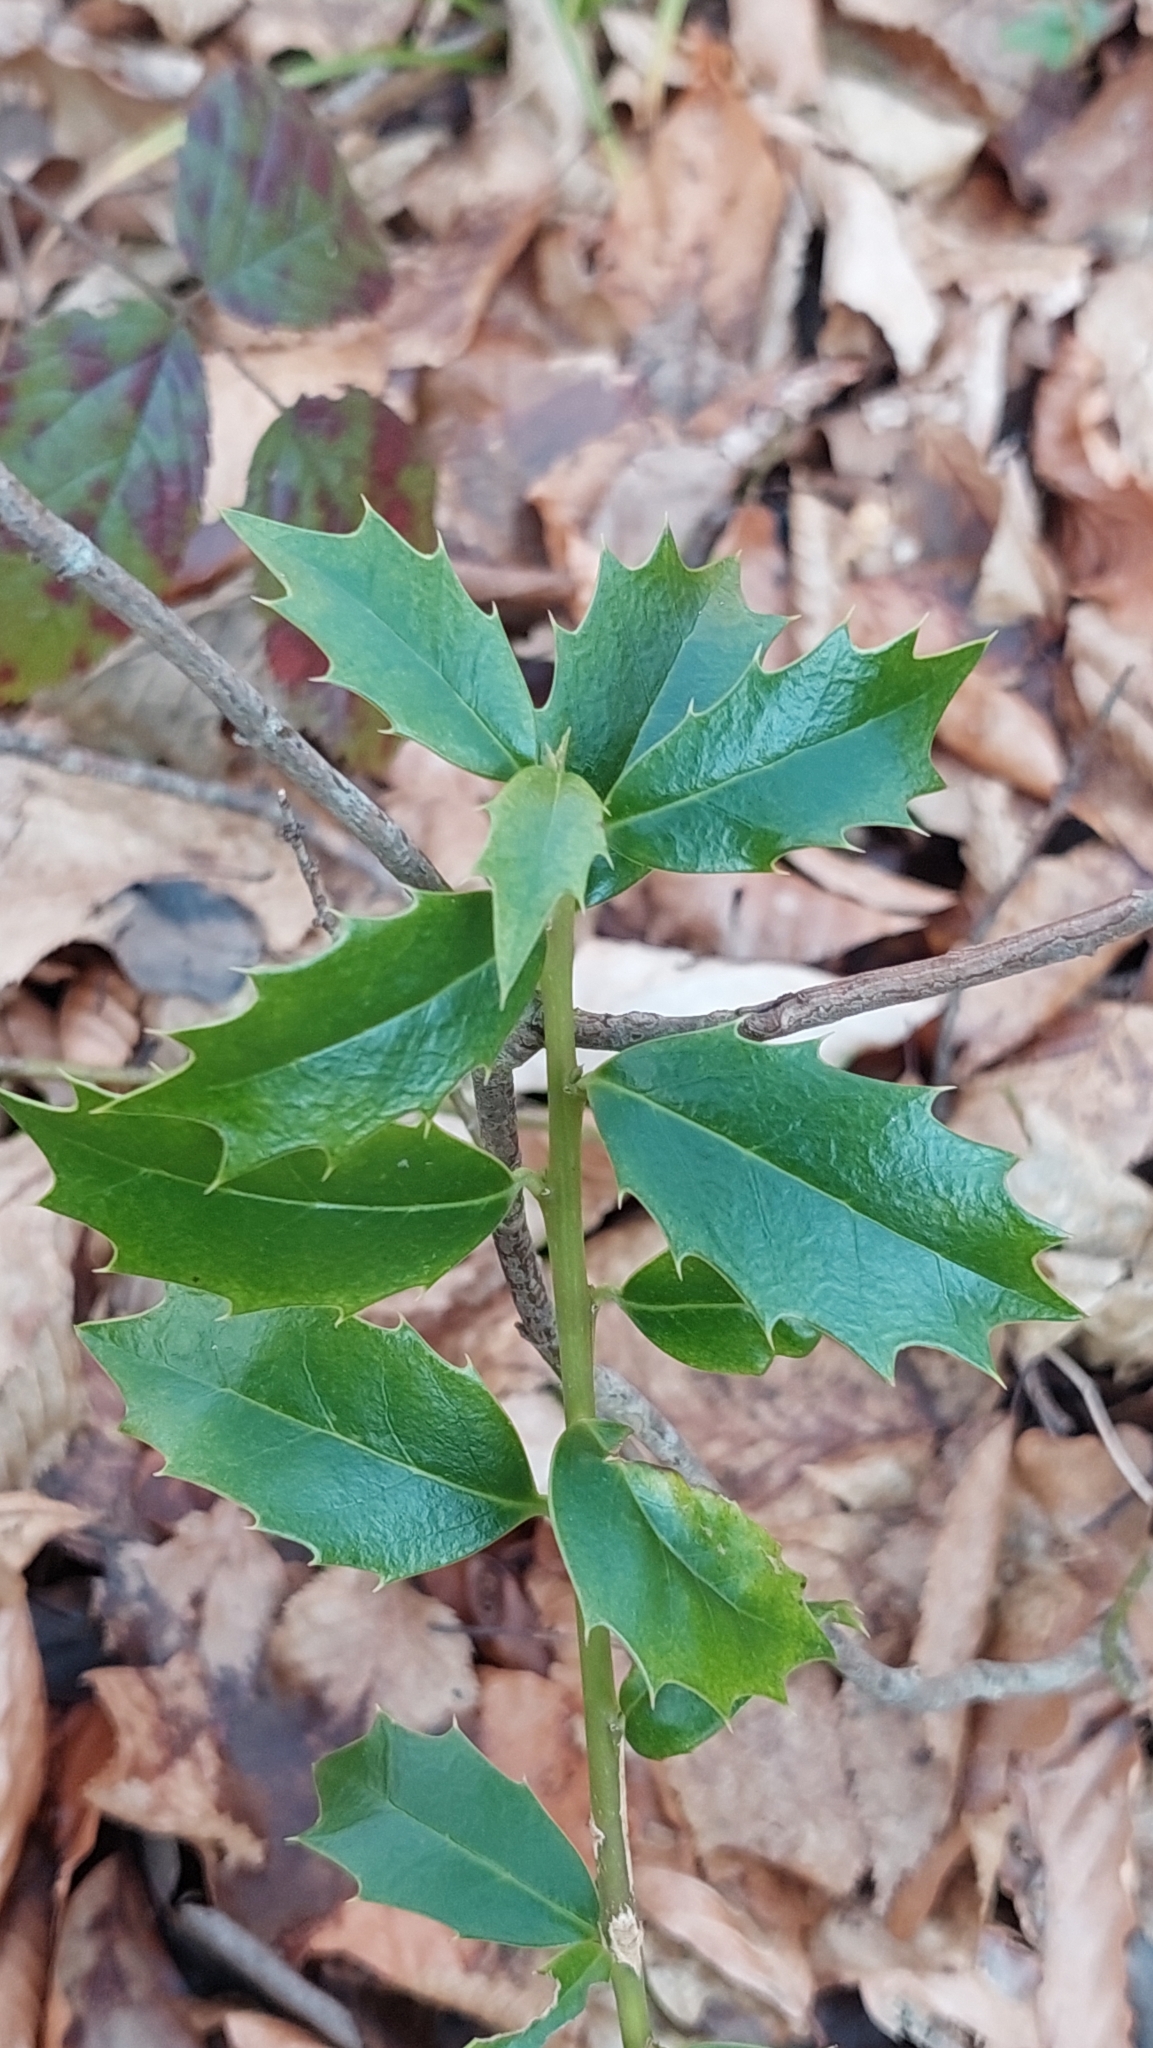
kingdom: Plantae
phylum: Tracheophyta
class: Magnoliopsida
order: Aquifoliales
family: Aquifoliaceae
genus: Ilex
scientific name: Ilex colchica
